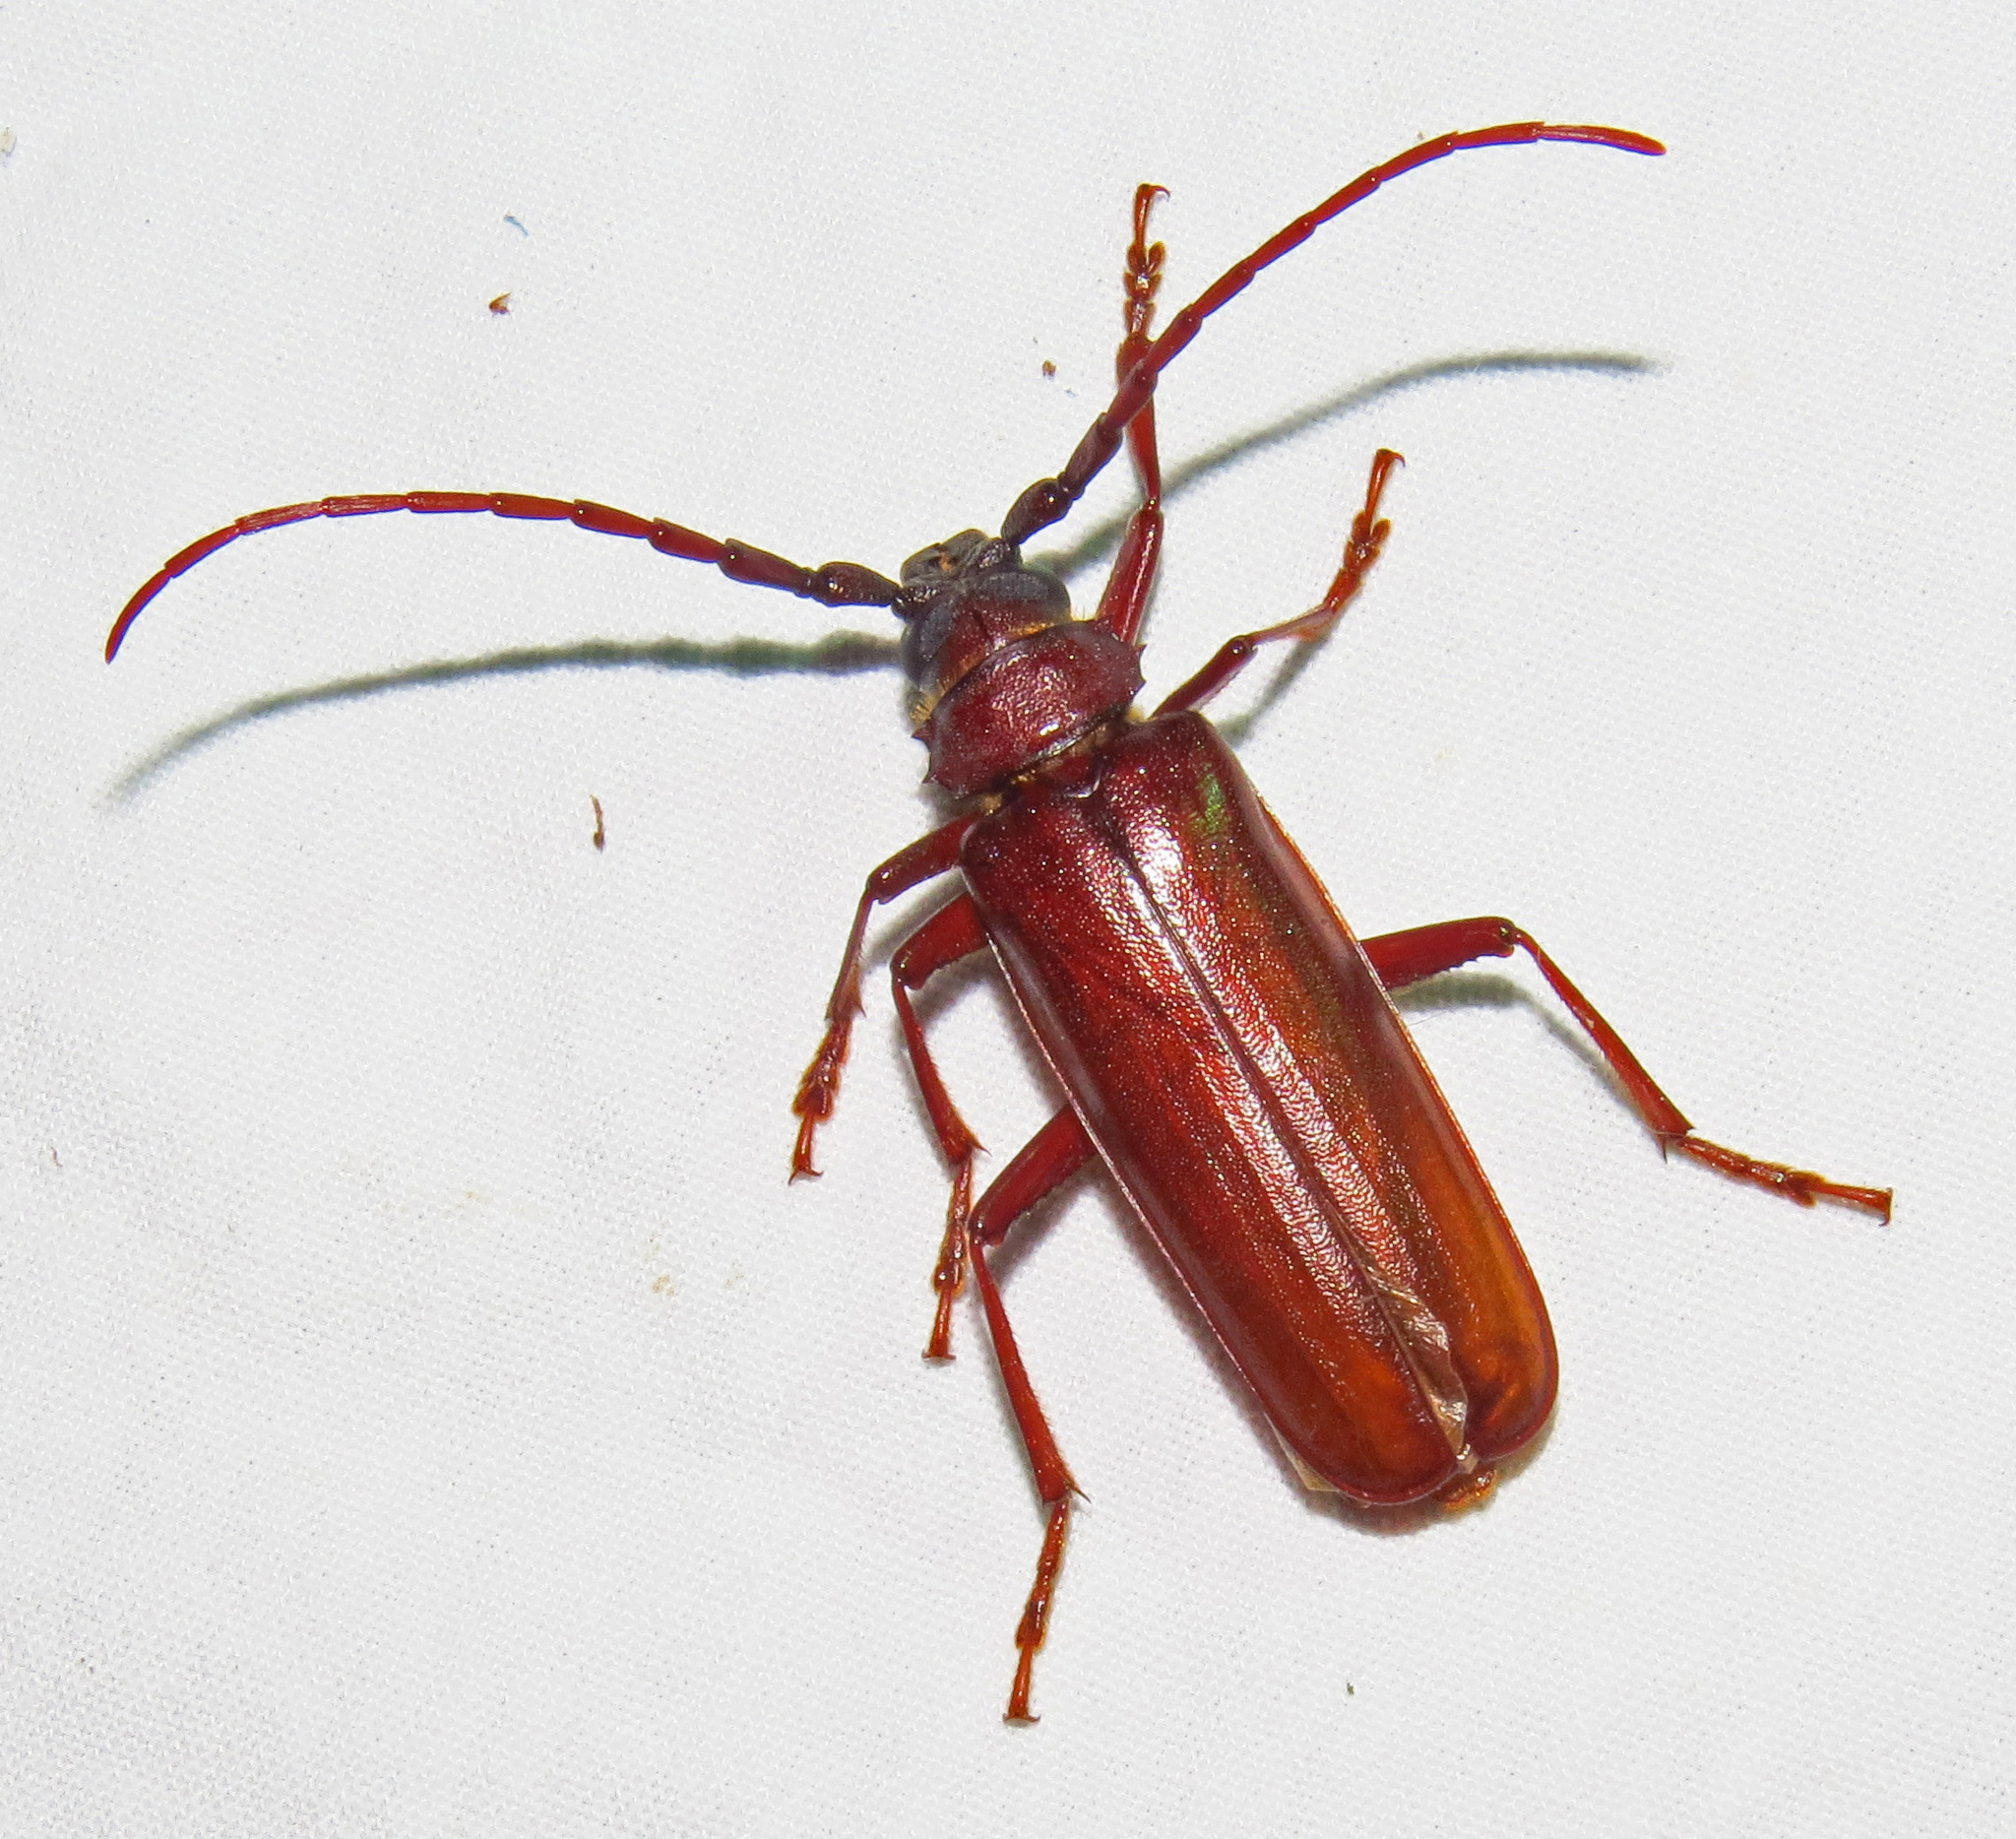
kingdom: Animalia
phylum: Arthropoda
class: Insecta
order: Coleoptera
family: Cerambycidae
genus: Orthosoma
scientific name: Orthosoma brunneum
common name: Brown prionid beetle
